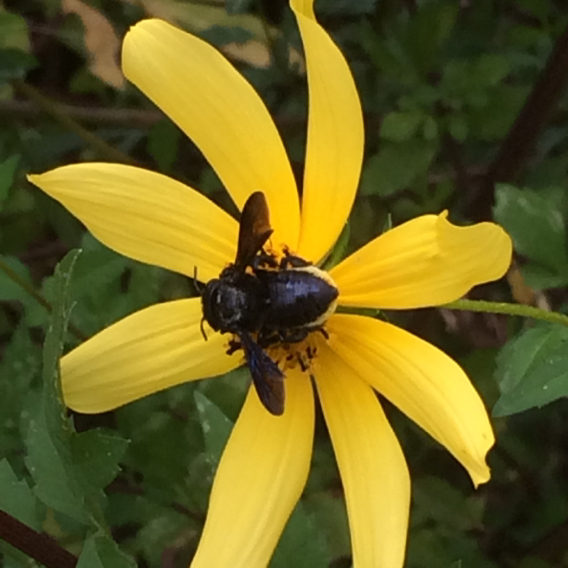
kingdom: Animalia
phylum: Arthropoda
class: Insecta
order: Hymenoptera
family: Megachilidae
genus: Megachile
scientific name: Megachile xylocopoides
